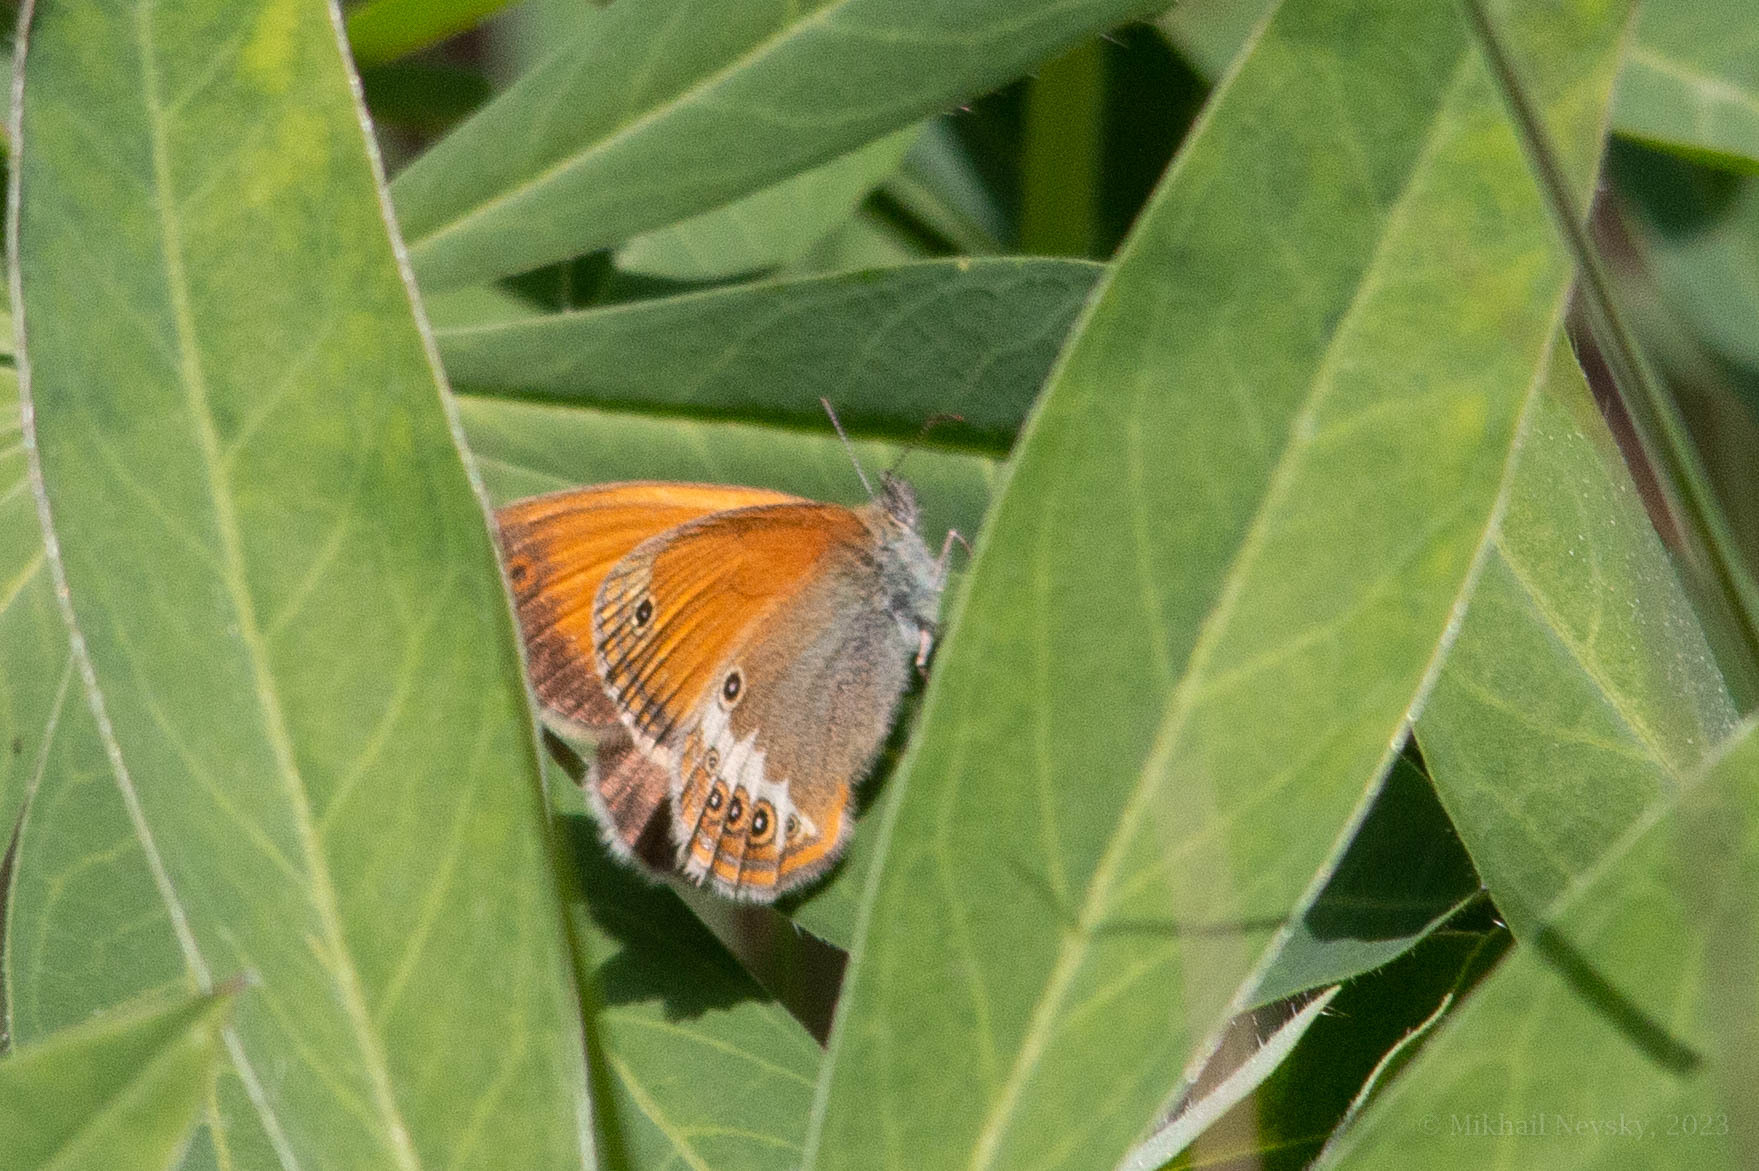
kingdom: Animalia
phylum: Arthropoda
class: Insecta
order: Lepidoptera
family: Nymphalidae
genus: Coenonympha
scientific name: Coenonympha arcania
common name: Pearly heath
